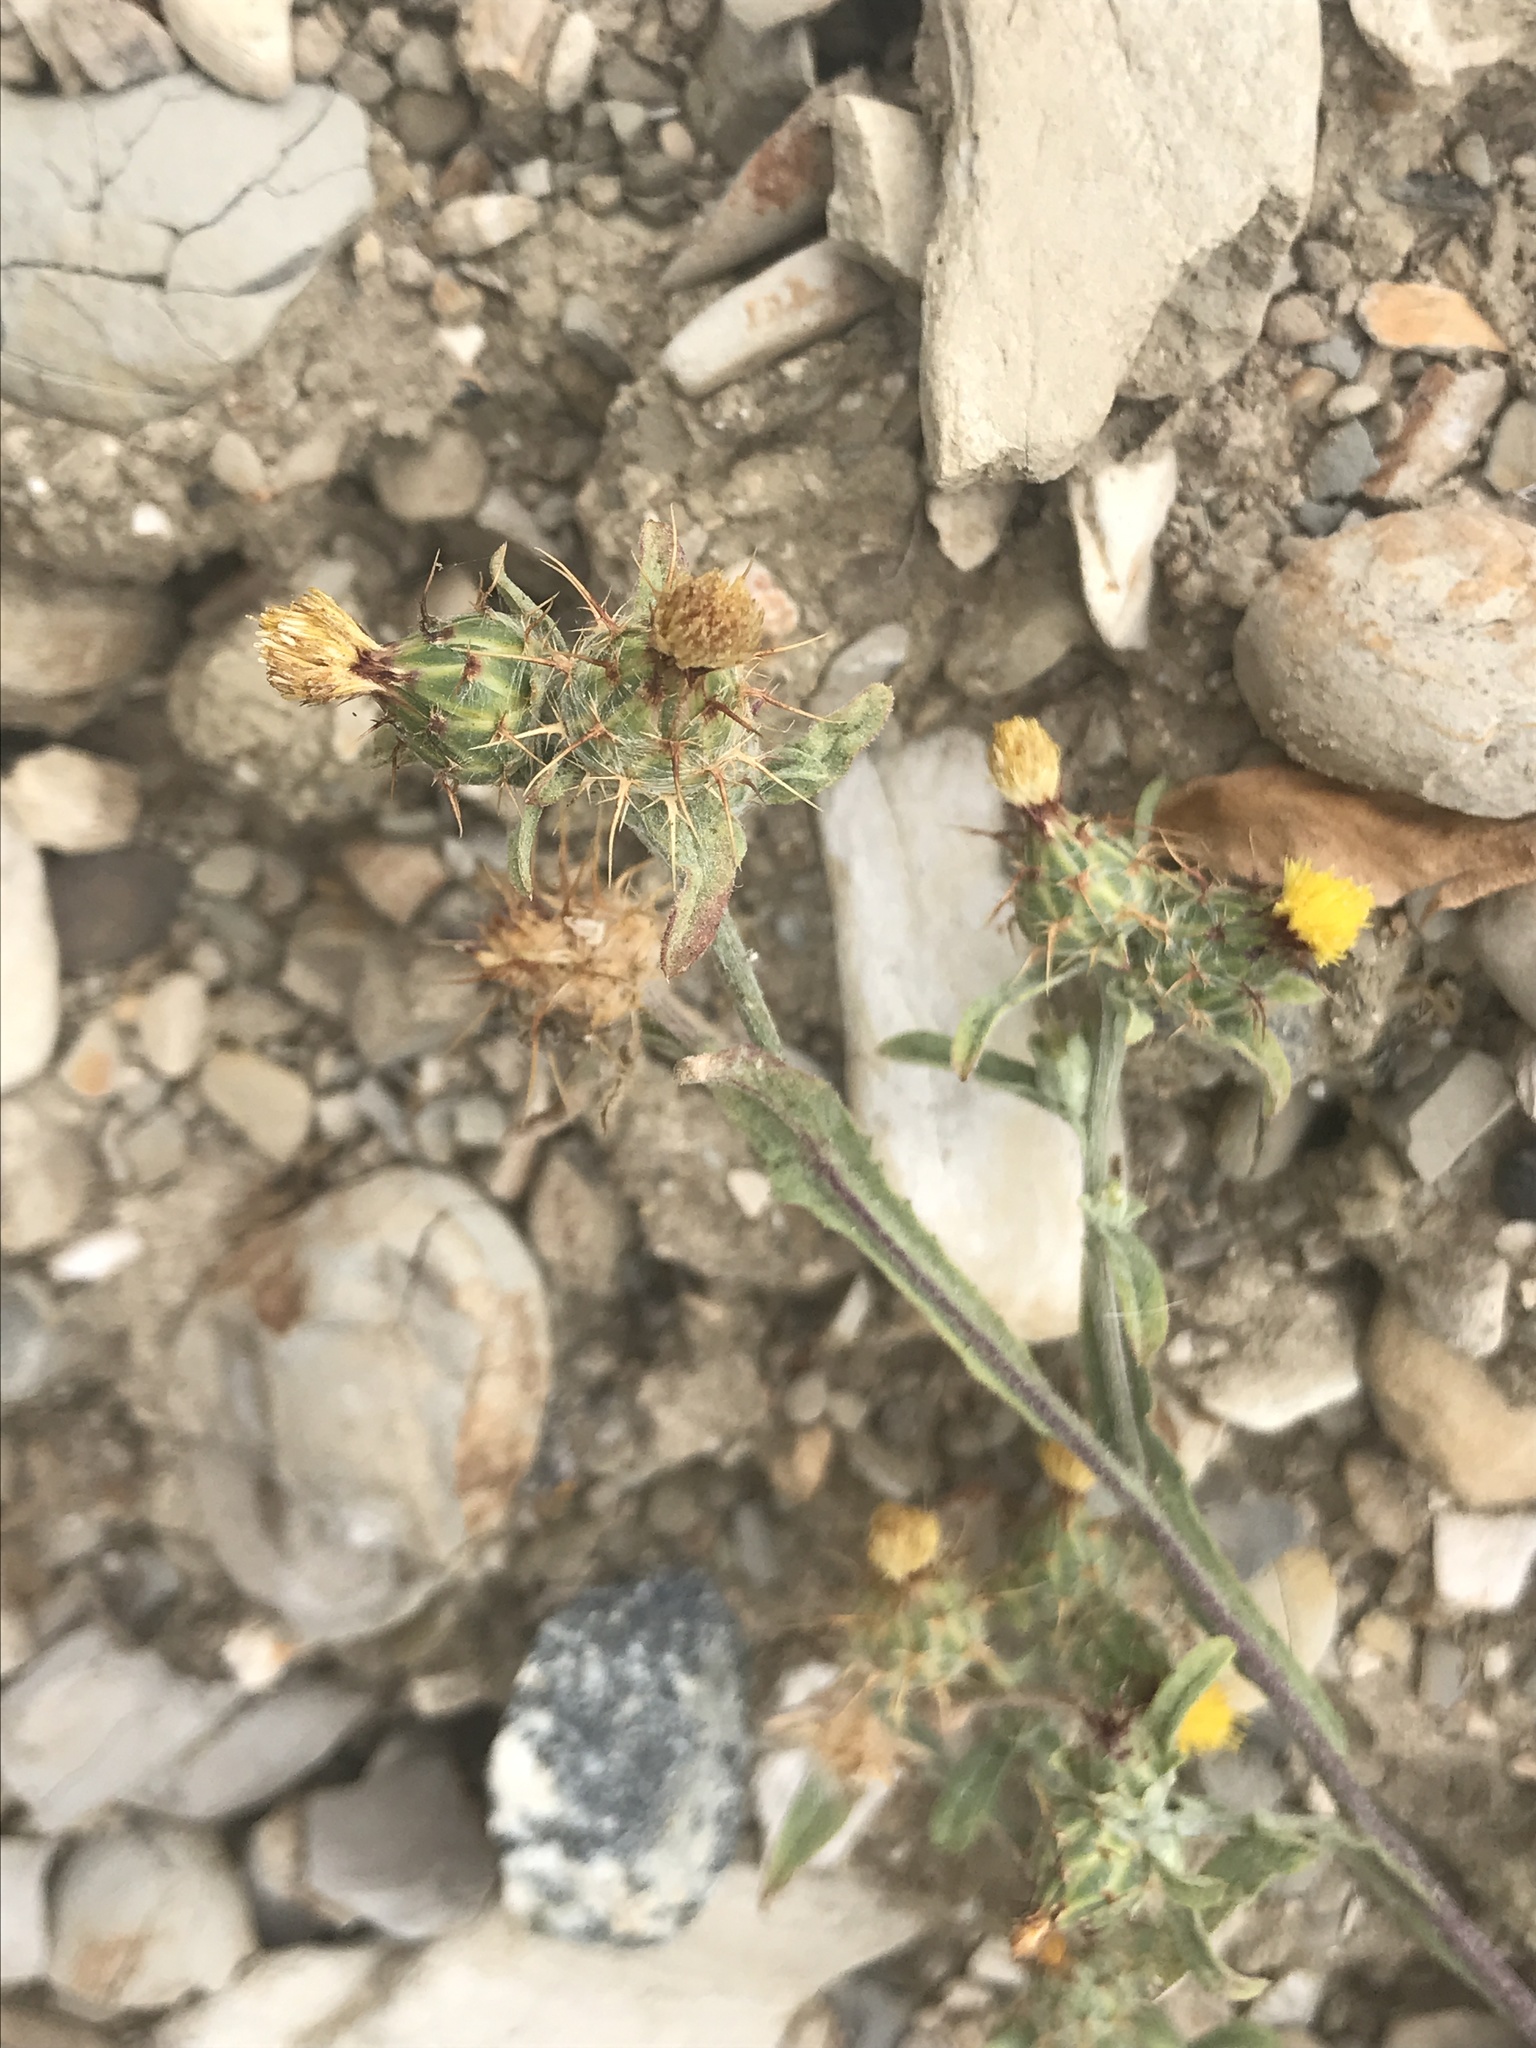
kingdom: Plantae
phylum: Tracheophyta
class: Magnoliopsida
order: Asterales
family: Asteraceae
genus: Centaurea
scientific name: Centaurea melitensis
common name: Maltese star-thistle
